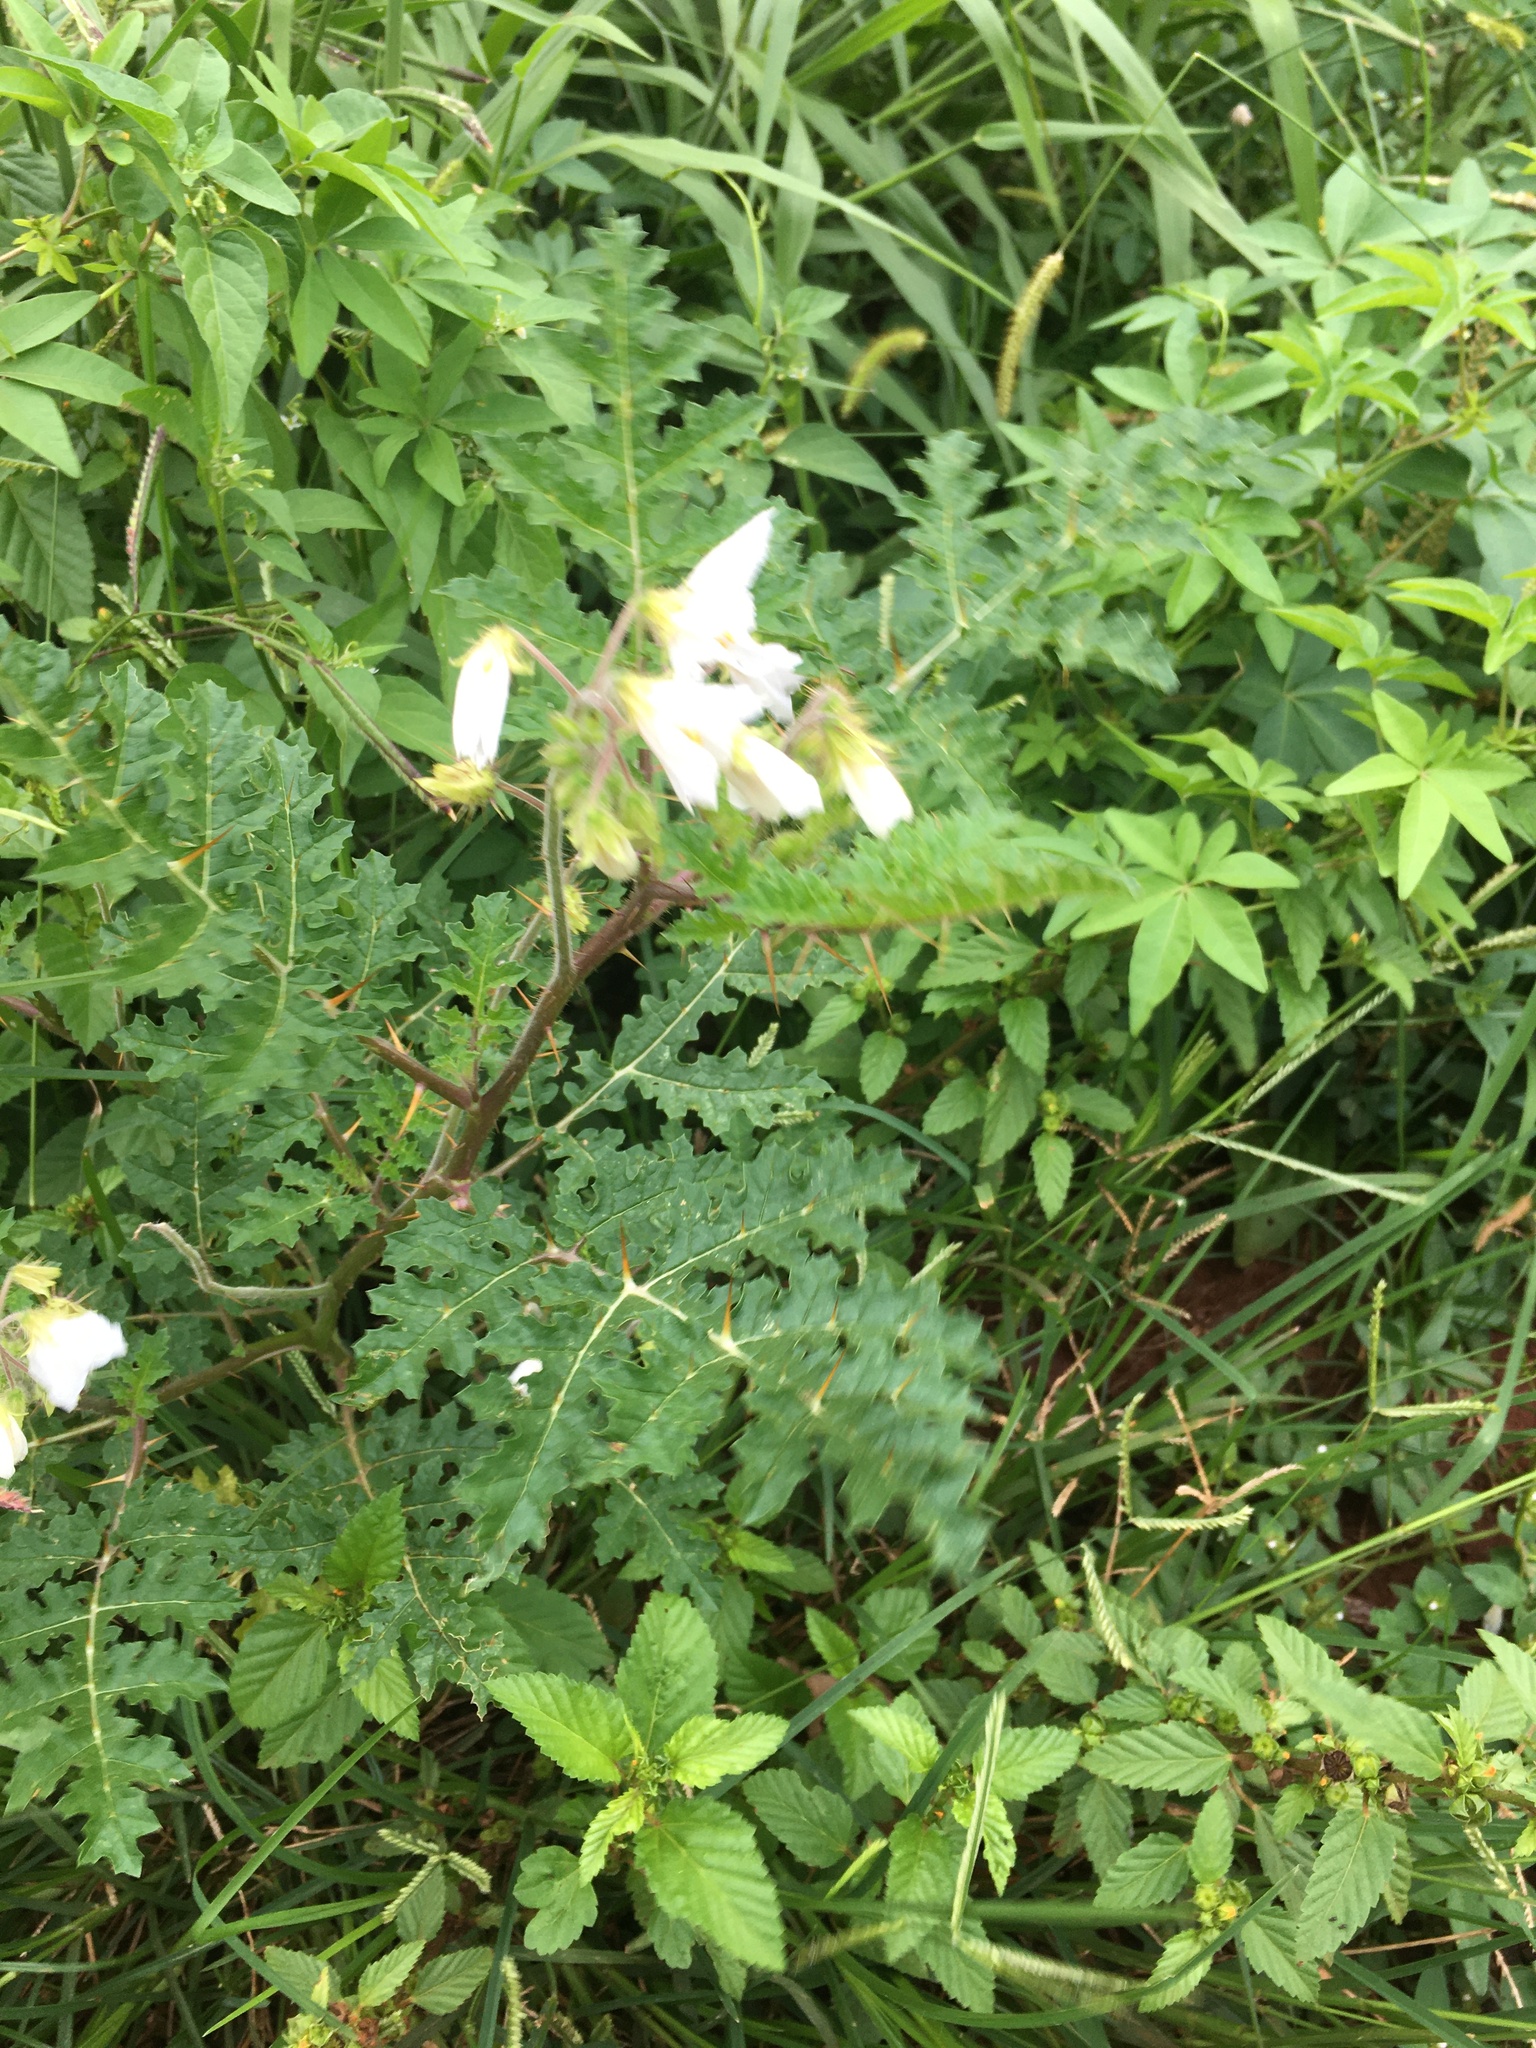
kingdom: Plantae
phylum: Tracheophyta
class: Magnoliopsida
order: Solanales
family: Solanaceae
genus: Solanum
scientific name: Solanum sisymbriifolium
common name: Red buffalo-bur
